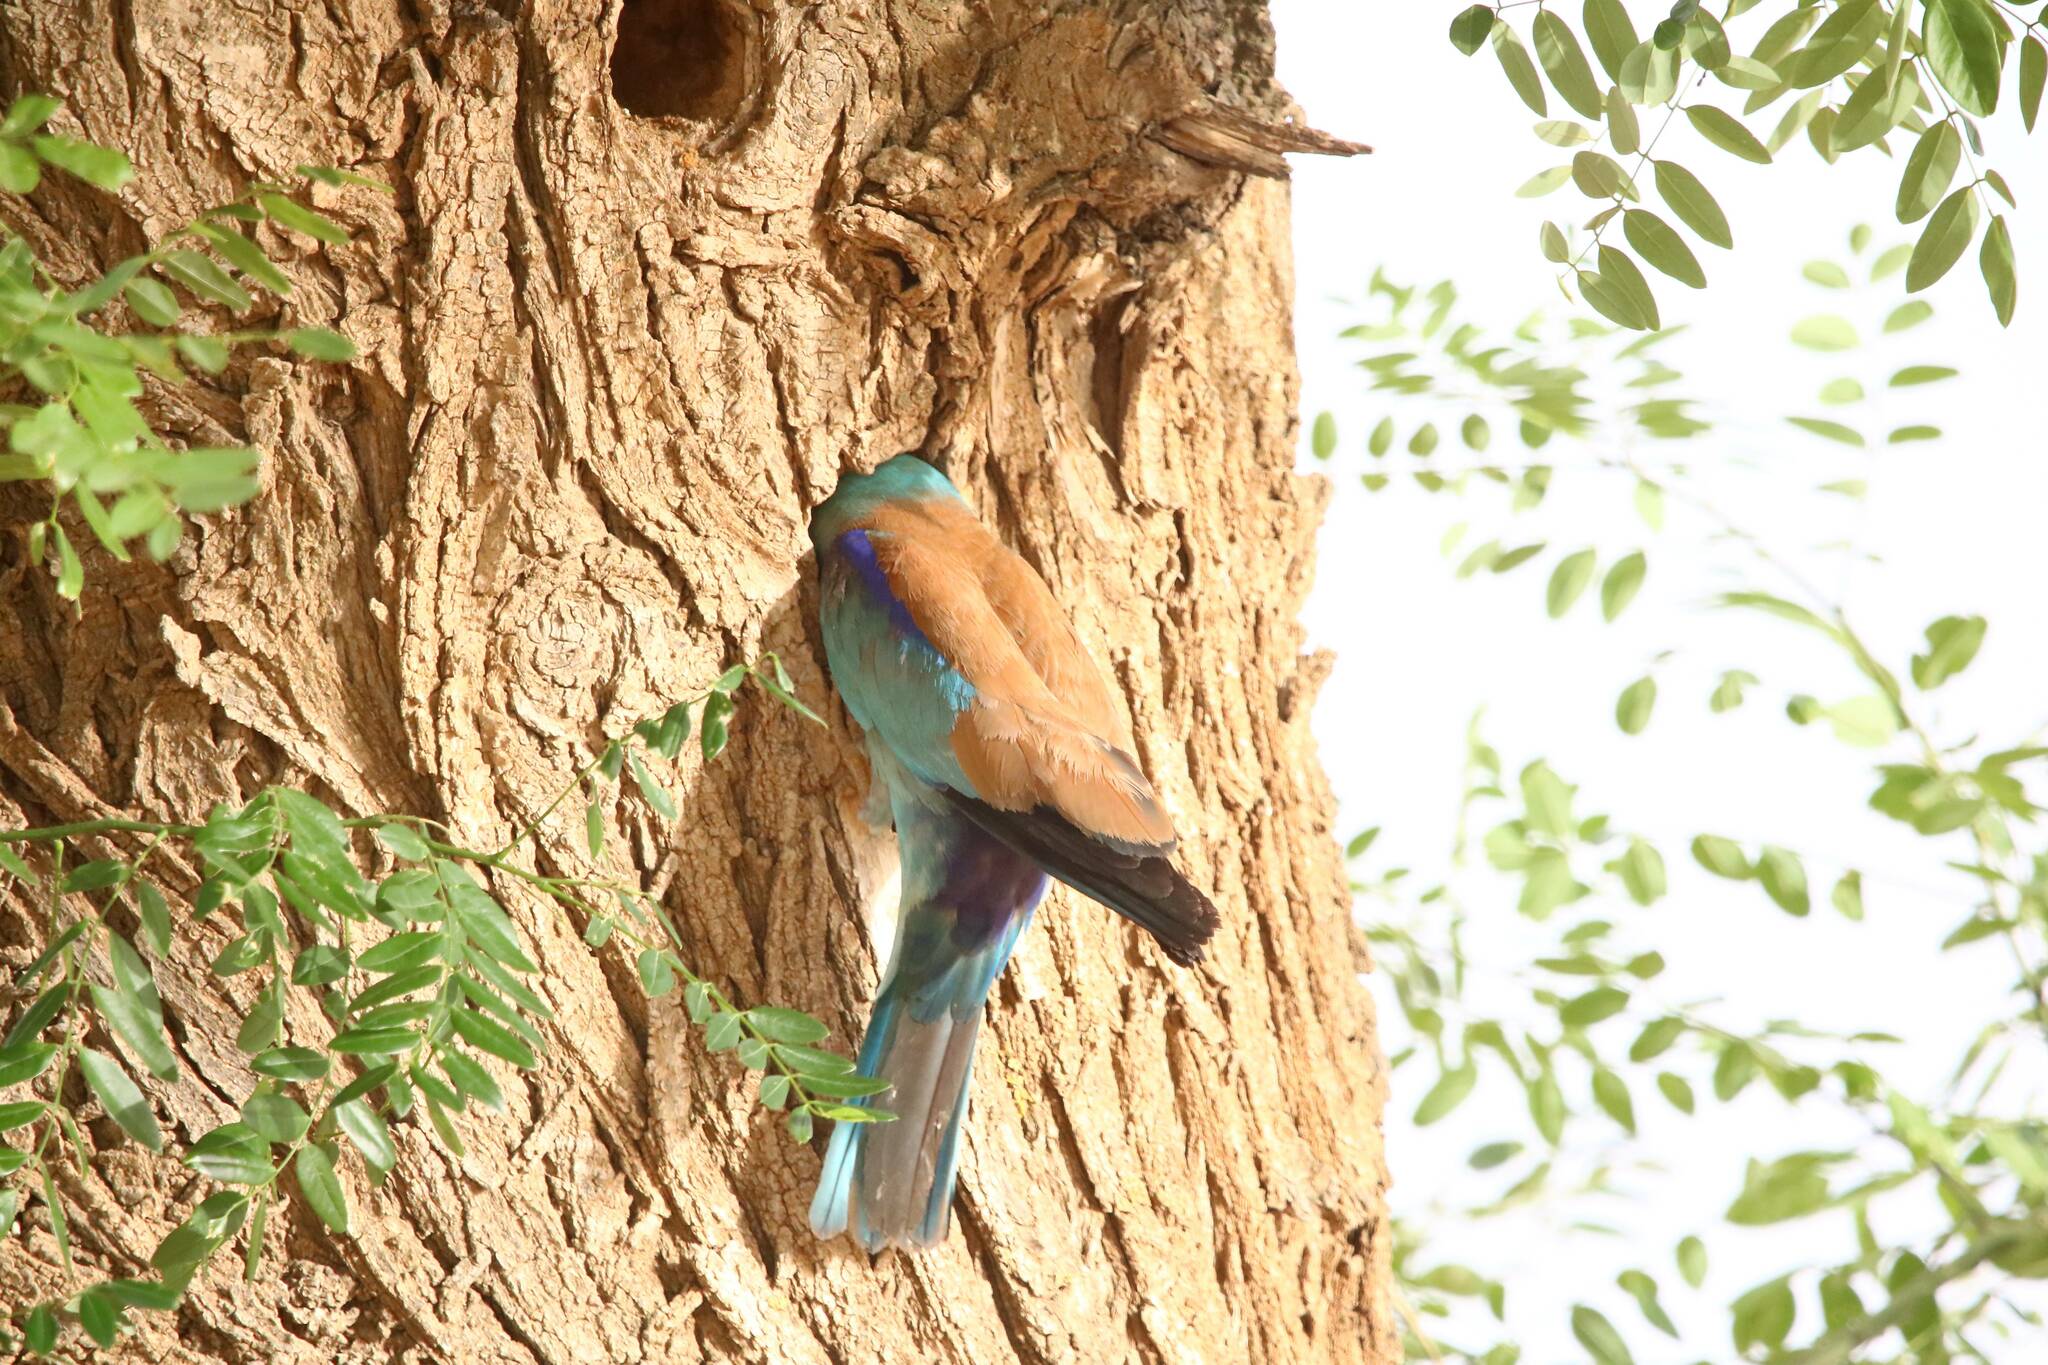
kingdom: Animalia
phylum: Chordata
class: Aves
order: Coraciiformes
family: Coraciidae
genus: Coracias
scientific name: Coracias garrulus
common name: European roller
